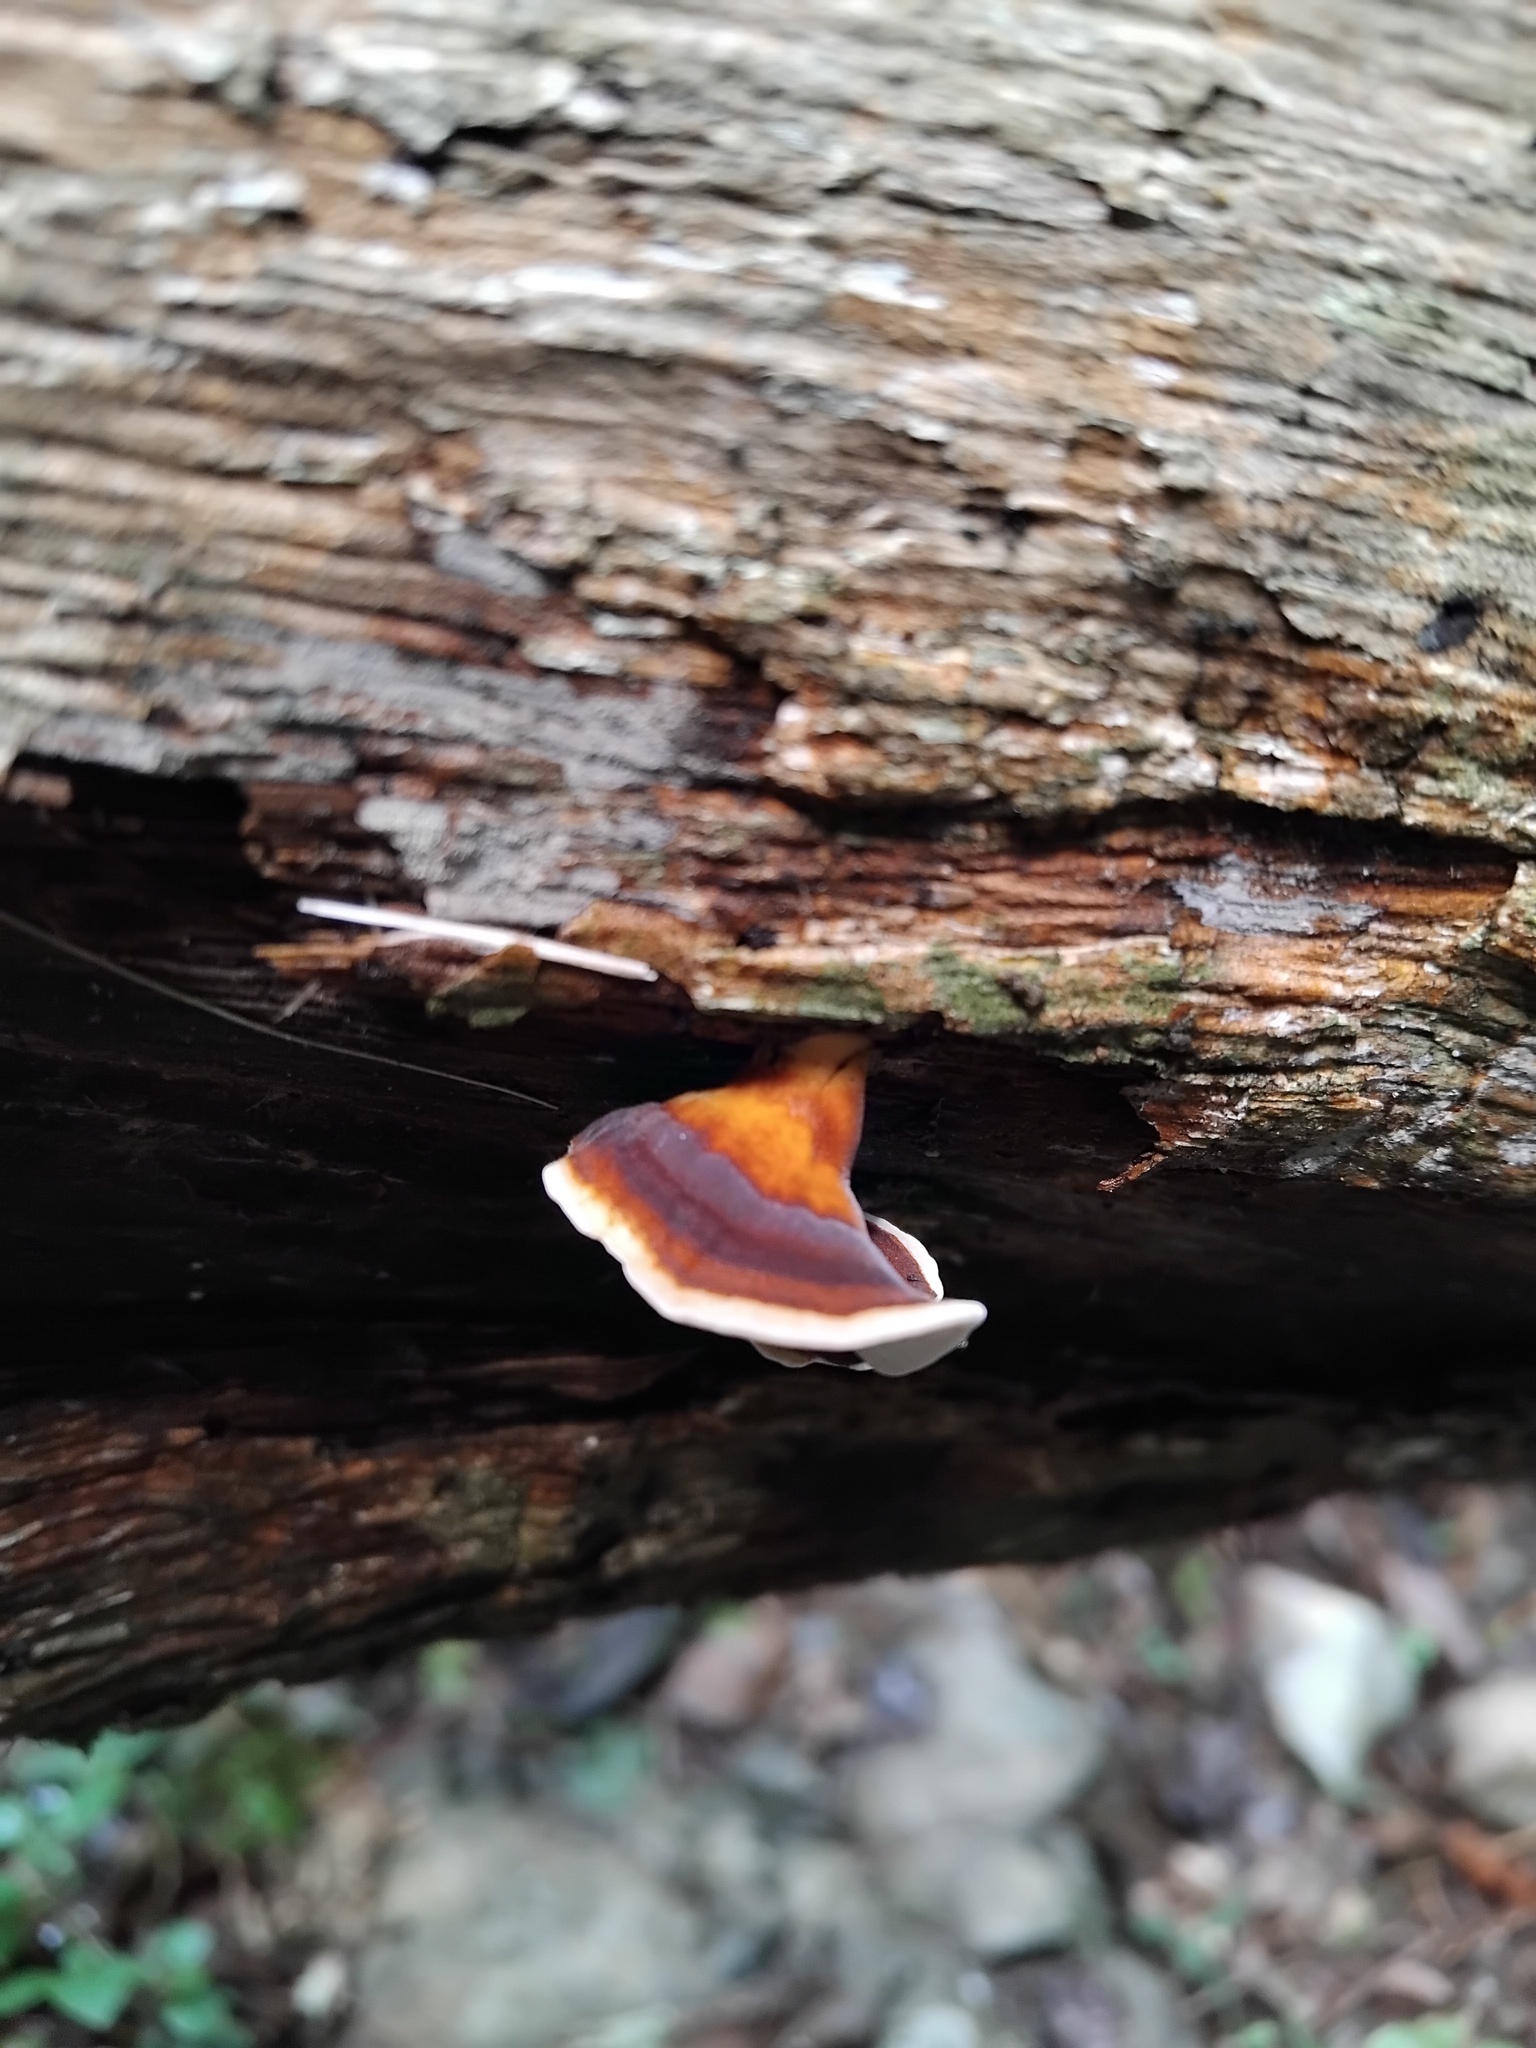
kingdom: Fungi
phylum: Basidiomycota
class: Agaricomycetes
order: Polyporales
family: Polyporaceae
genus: Microporus
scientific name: Microporus affinis
